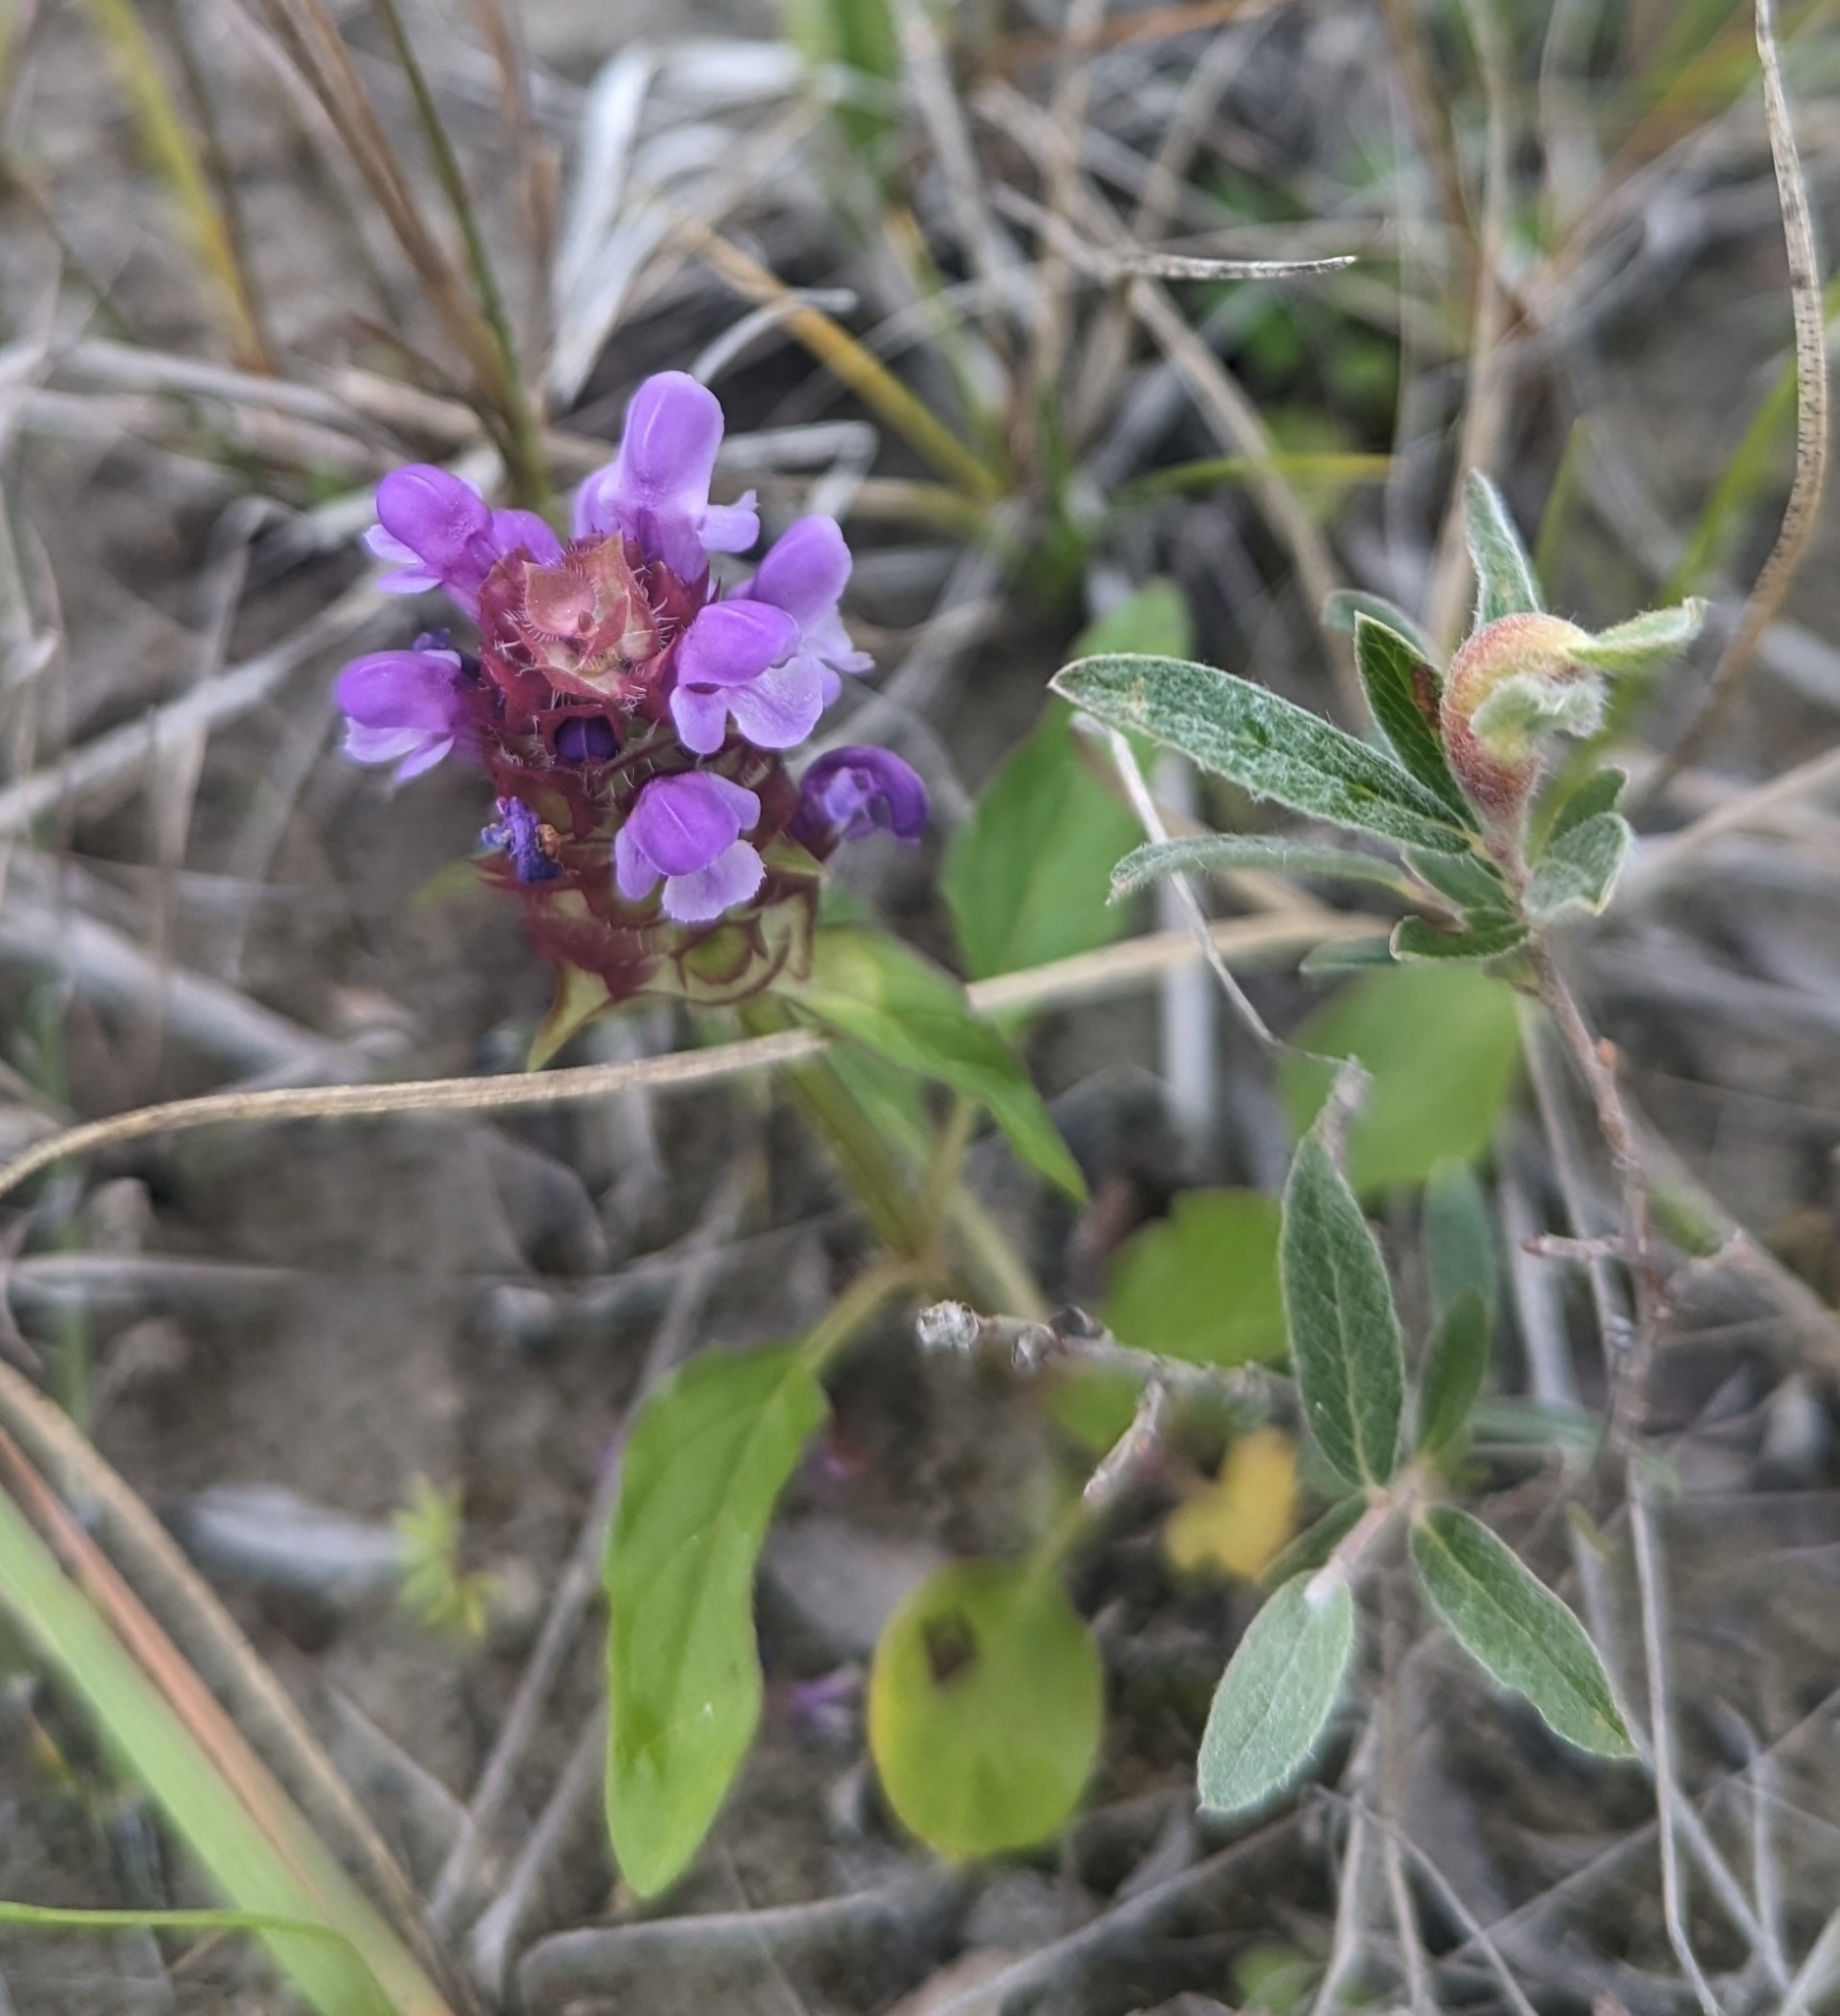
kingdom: Plantae
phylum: Tracheophyta
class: Magnoliopsida
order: Lamiales
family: Lamiaceae
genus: Prunella
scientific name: Prunella vulgaris
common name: Heal-all
